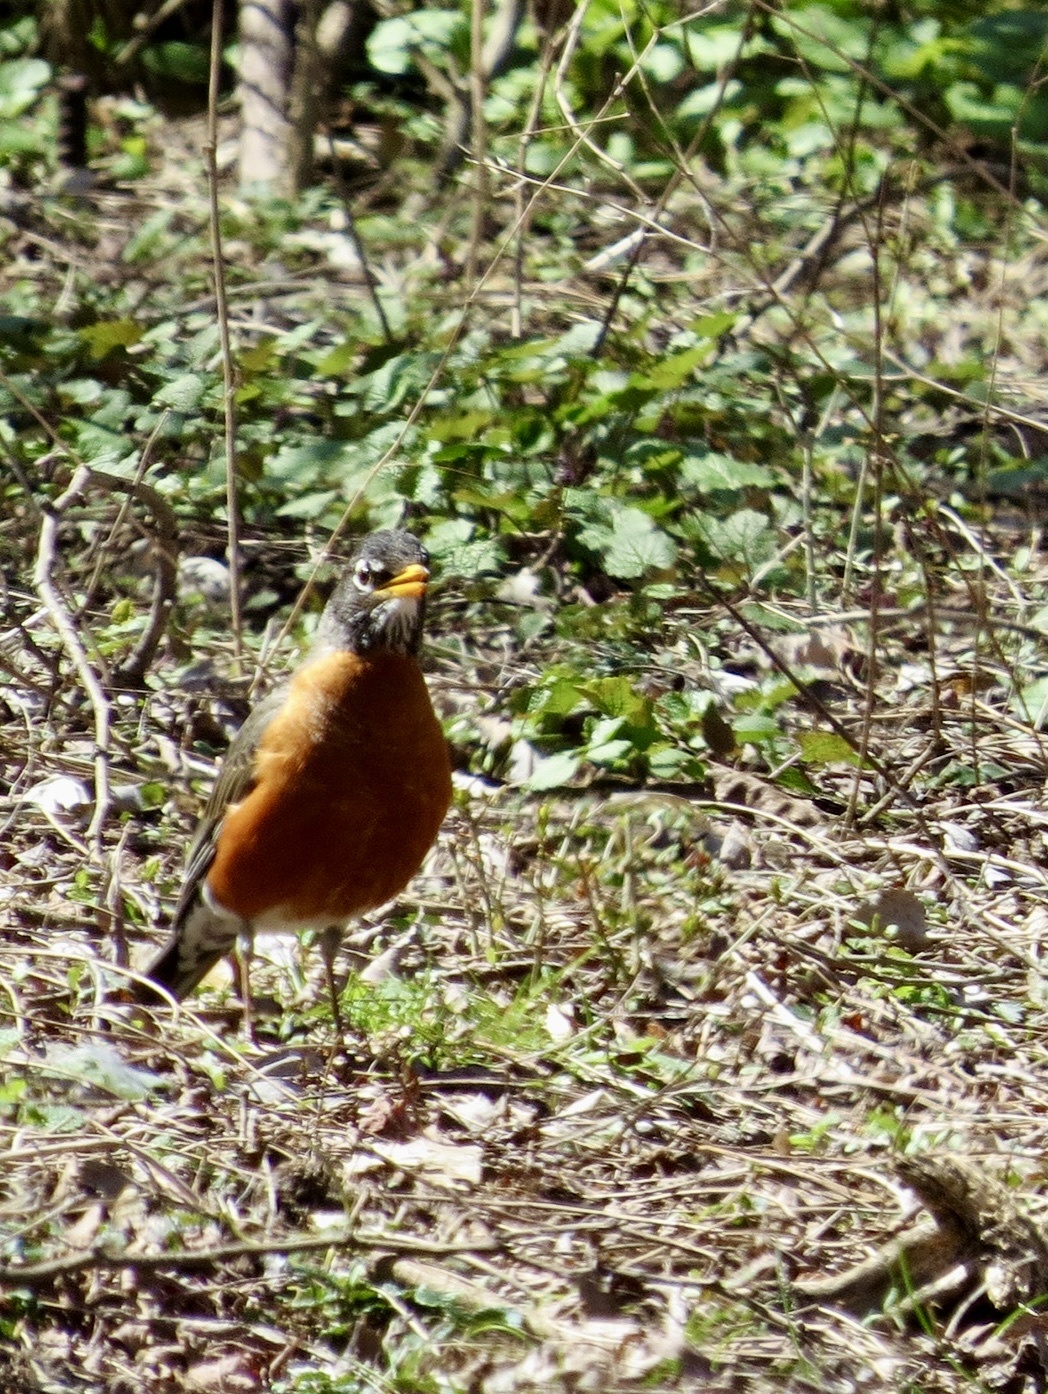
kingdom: Animalia
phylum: Chordata
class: Aves
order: Passeriformes
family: Turdidae
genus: Turdus
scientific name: Turdus migratorius
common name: American robin
